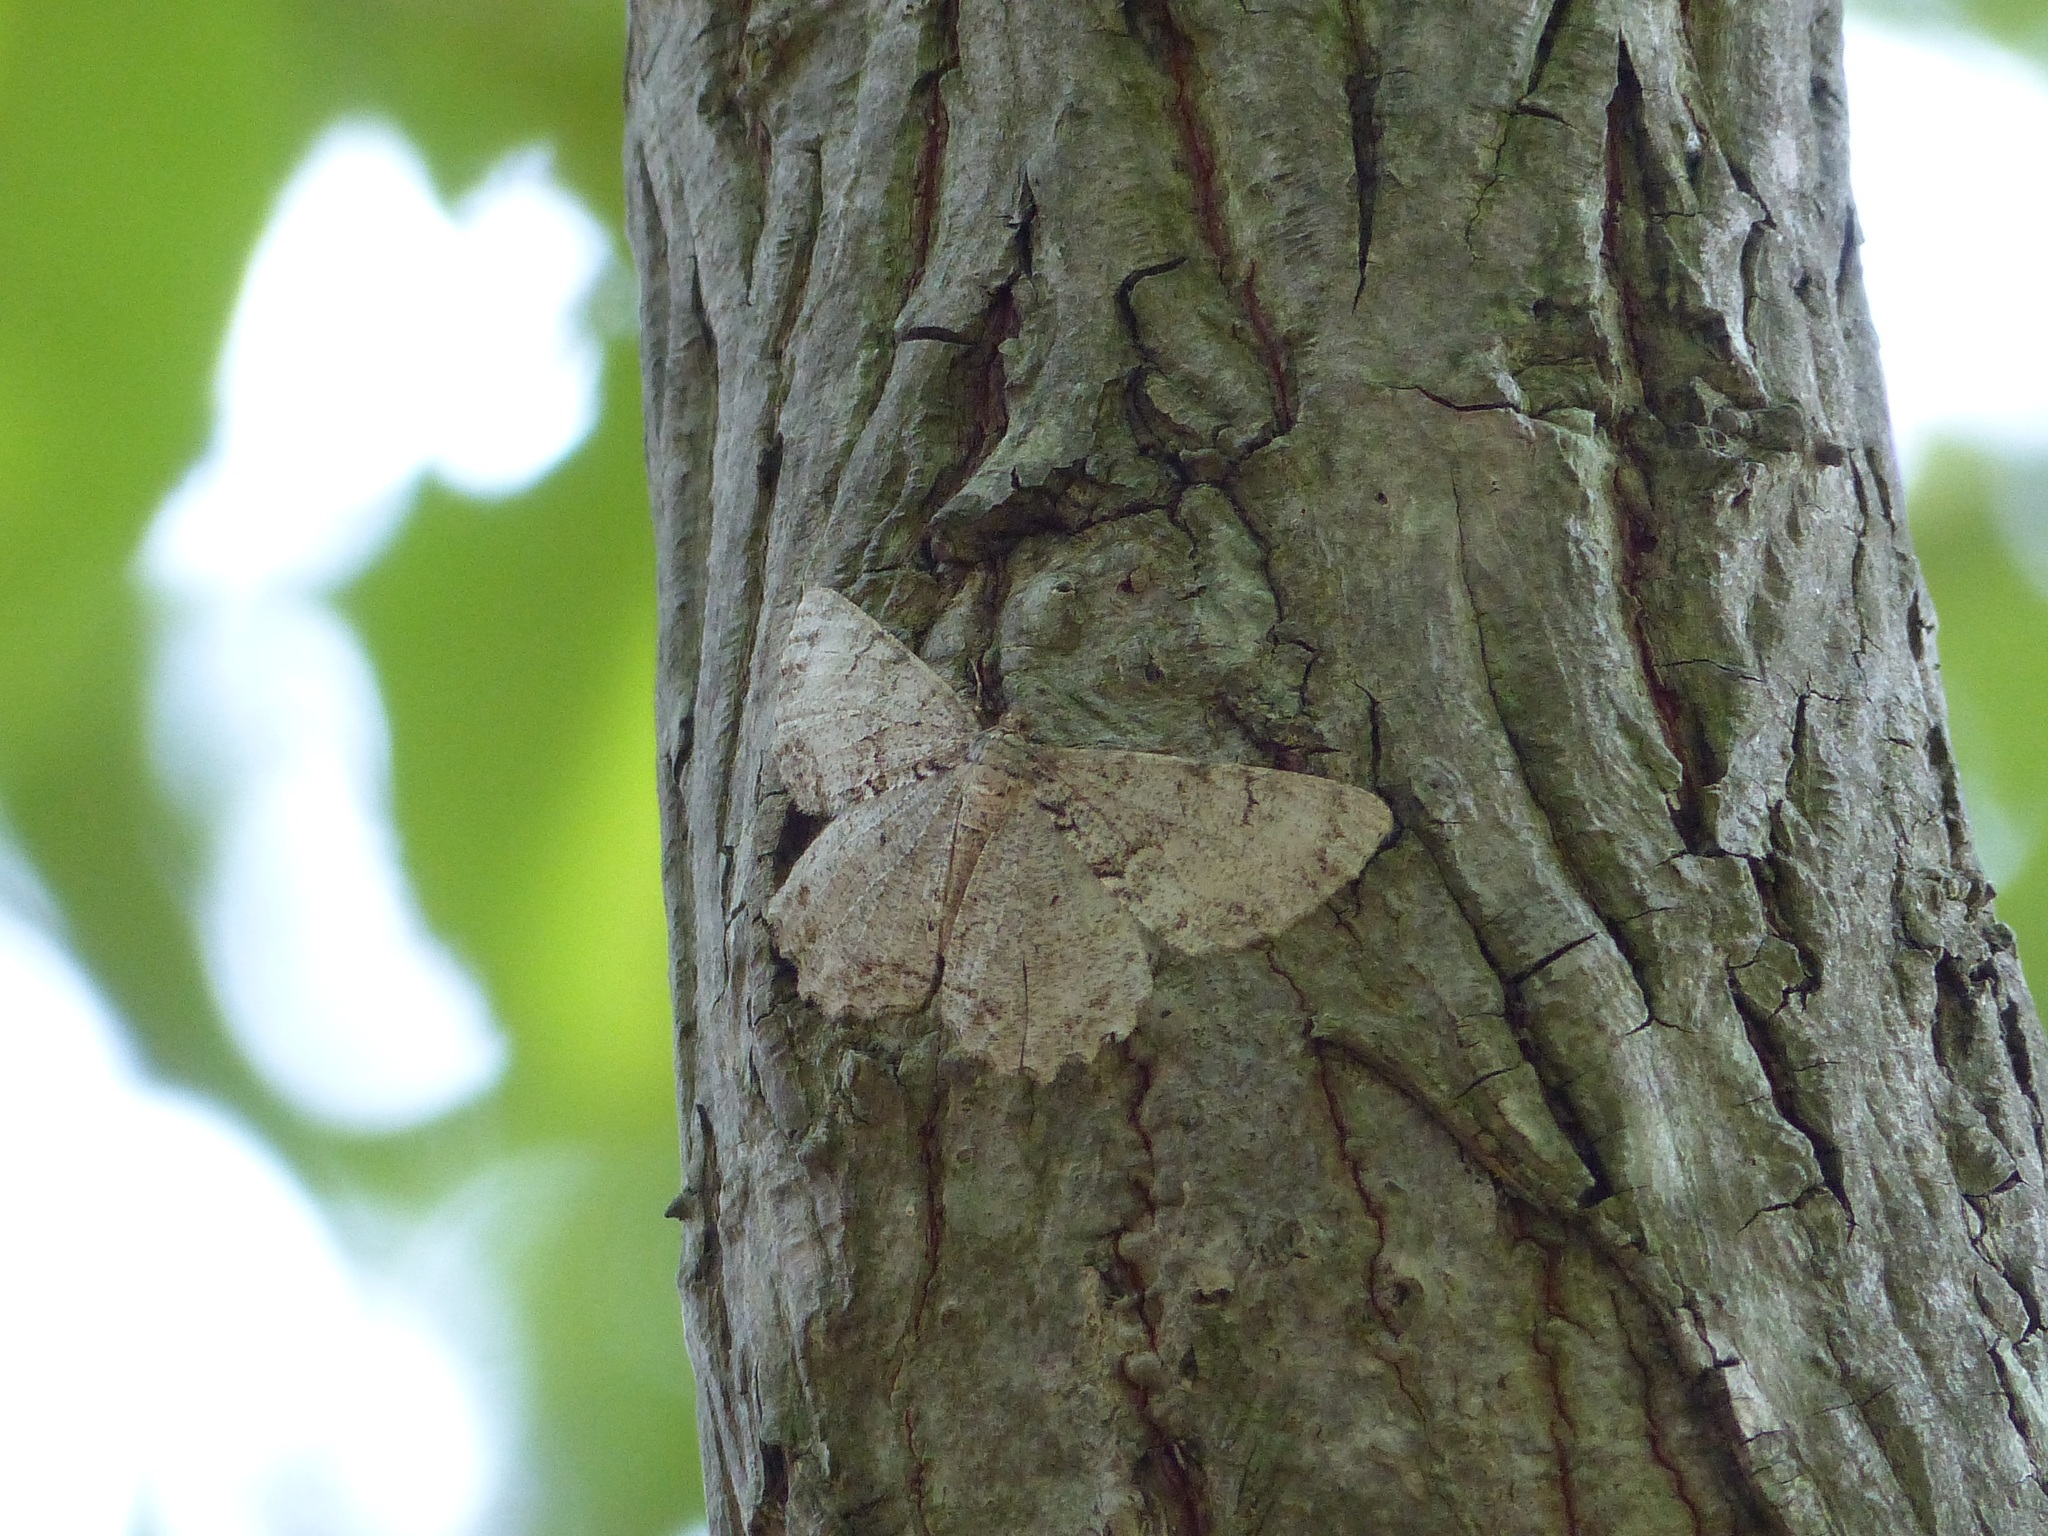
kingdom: Animalia
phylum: Arthropoda
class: Insecta
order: Lepidoptera
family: Geometridae
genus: Epimecis
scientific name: Epimecis hortaria
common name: Tulip-tree beauty
